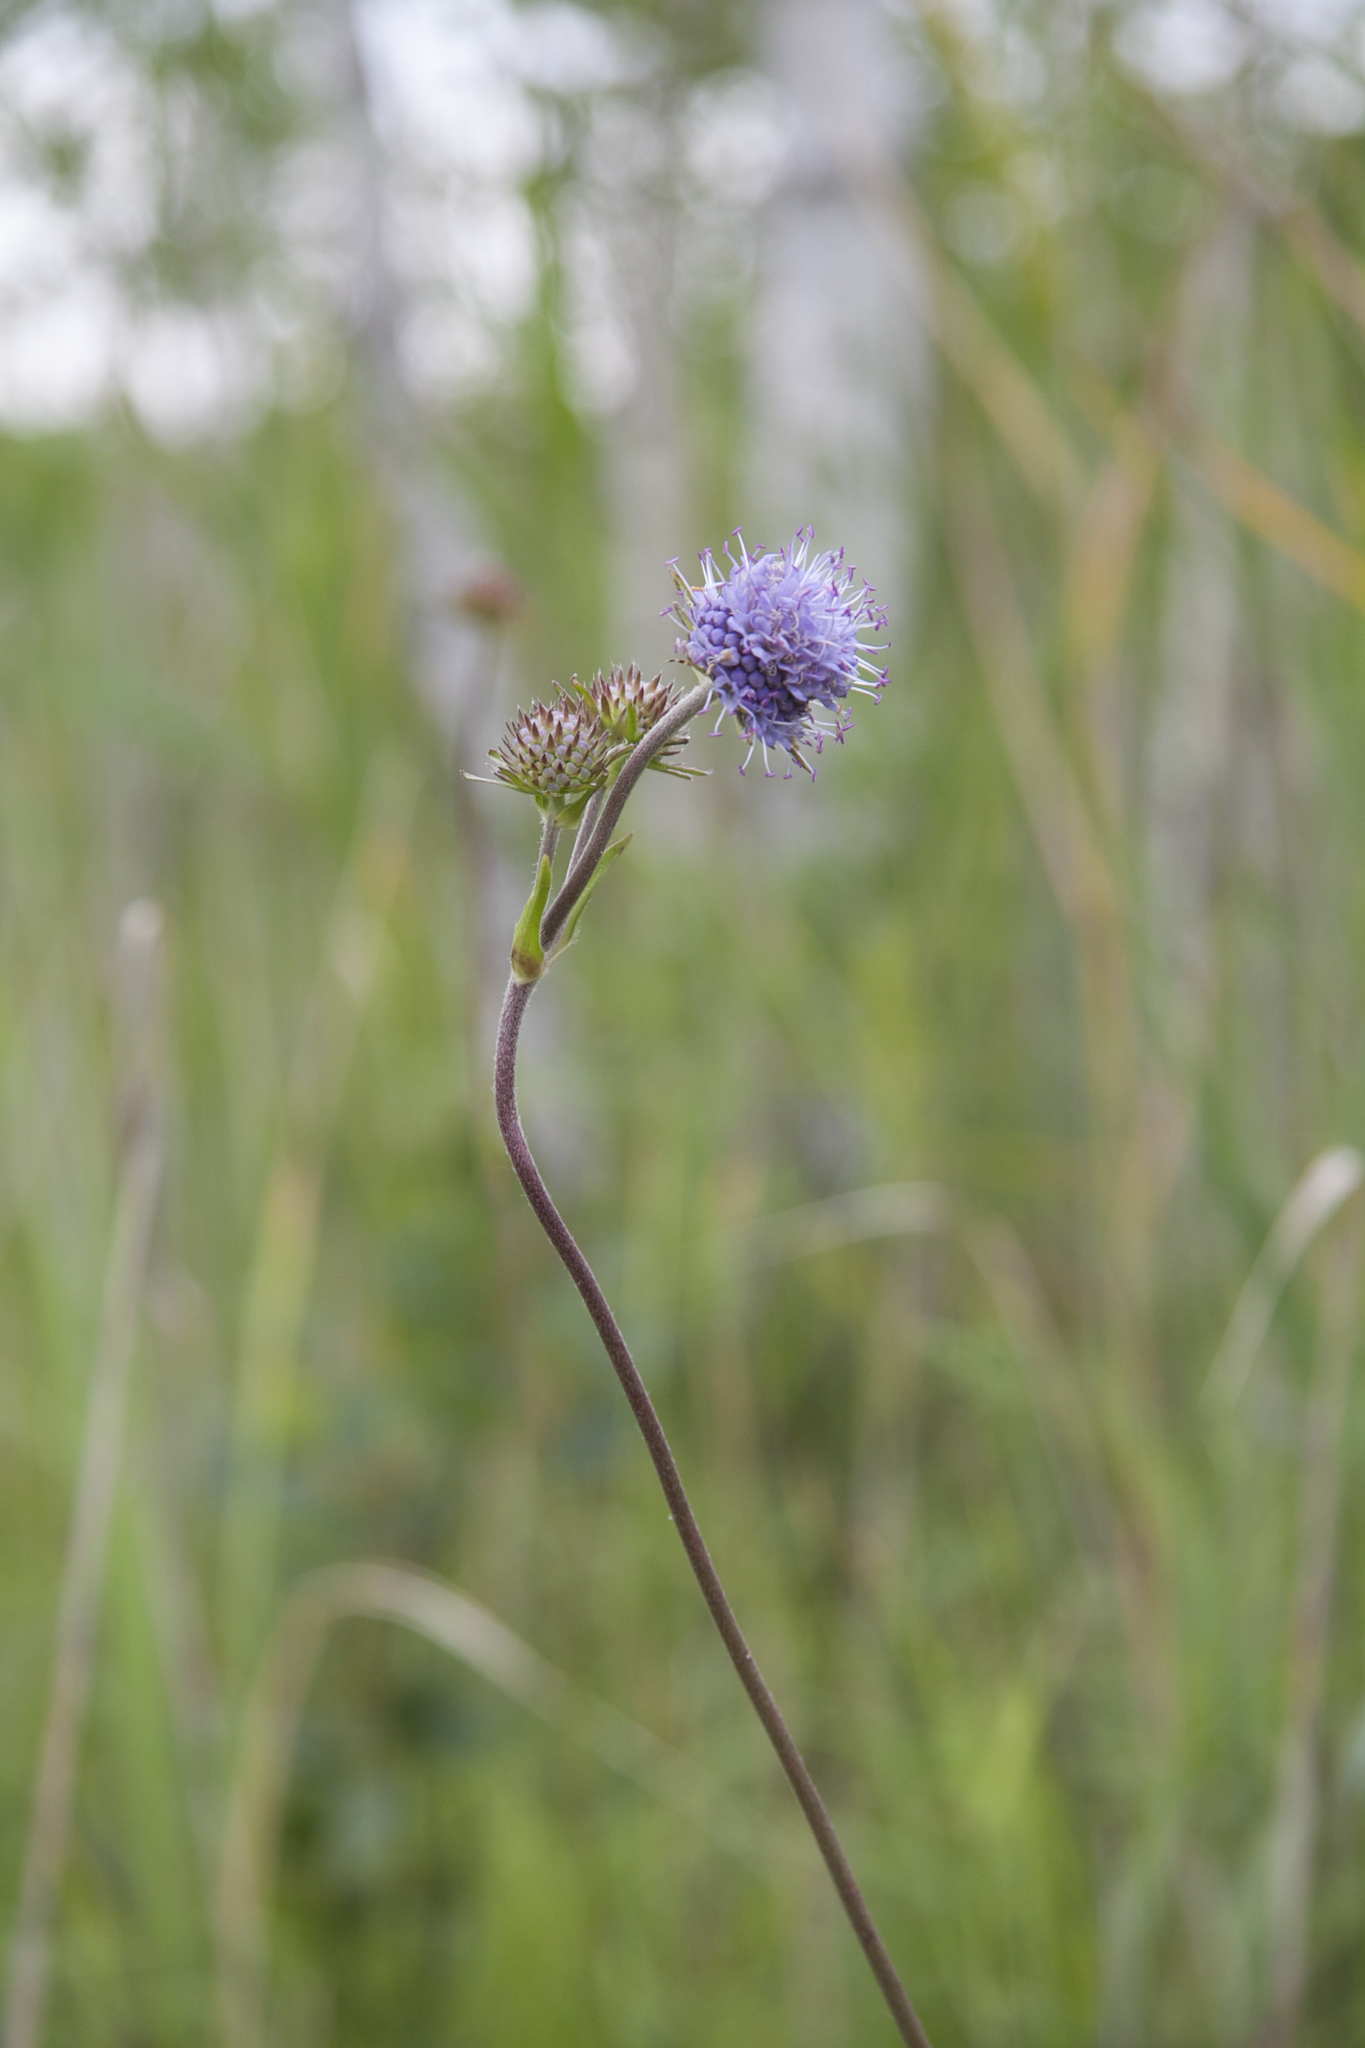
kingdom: Plantae
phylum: Tracheophyta
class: Magnoliopsida
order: Dipsacales
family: Caprifoliaceae
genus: Succisa
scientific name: Succisa pratensis
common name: Devil's-bit
